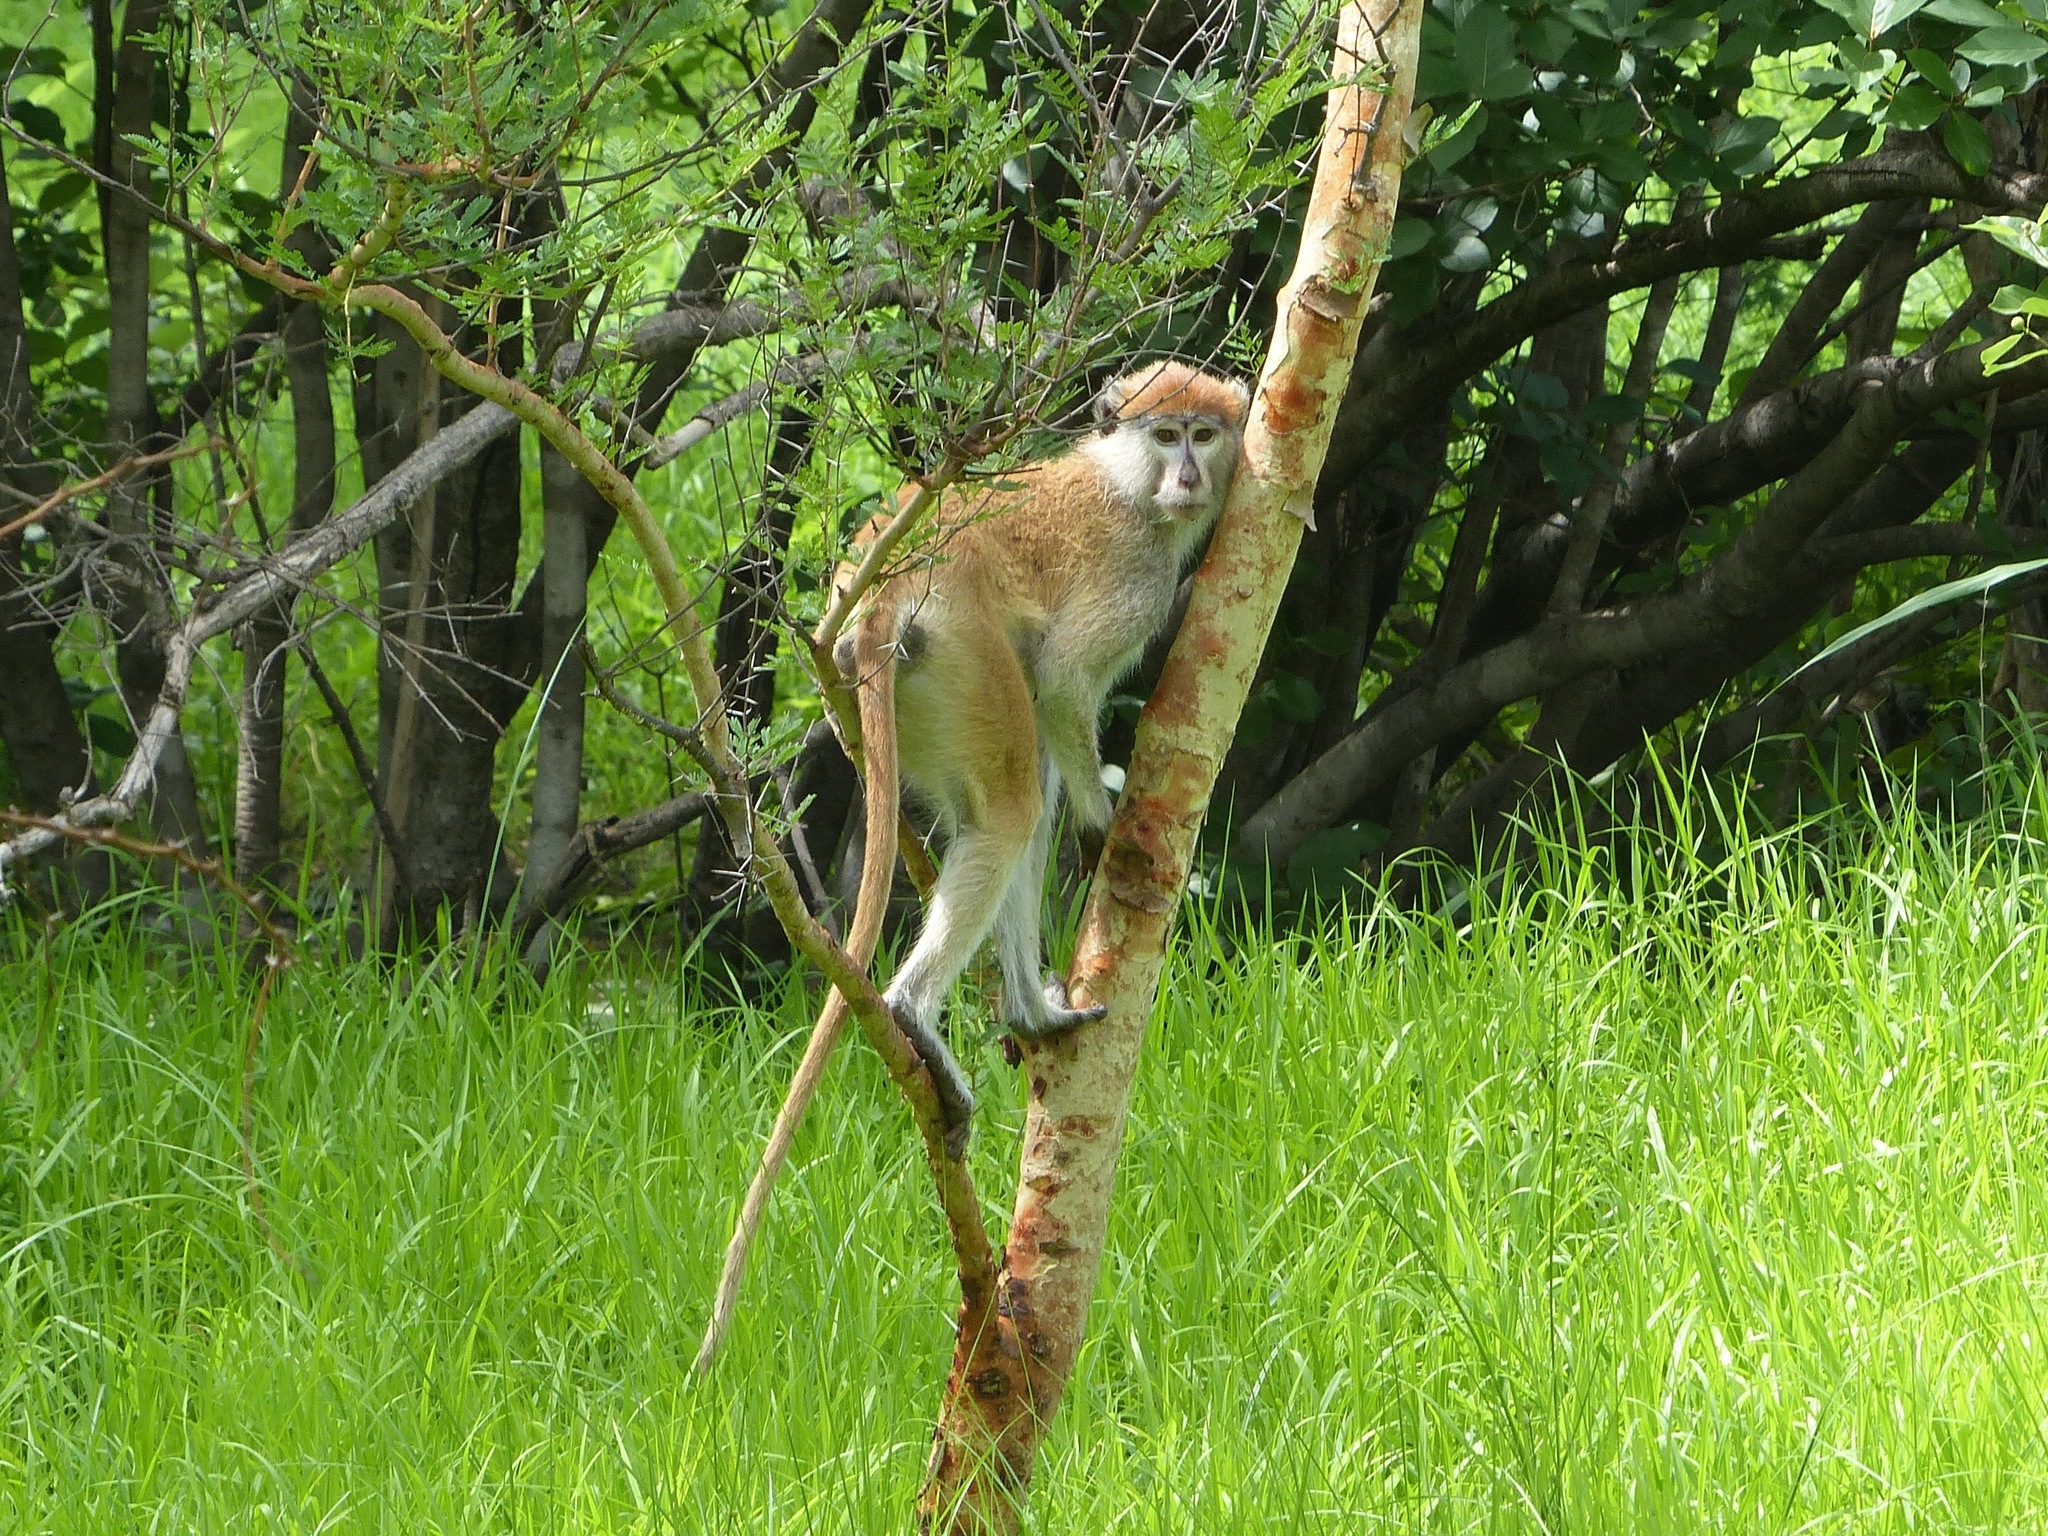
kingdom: Animalia
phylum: Chordata
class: Mammalia
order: Primates
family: Cercopithecidae
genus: Erythrocebus
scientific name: Erythrocebus patas
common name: Patas monkey
